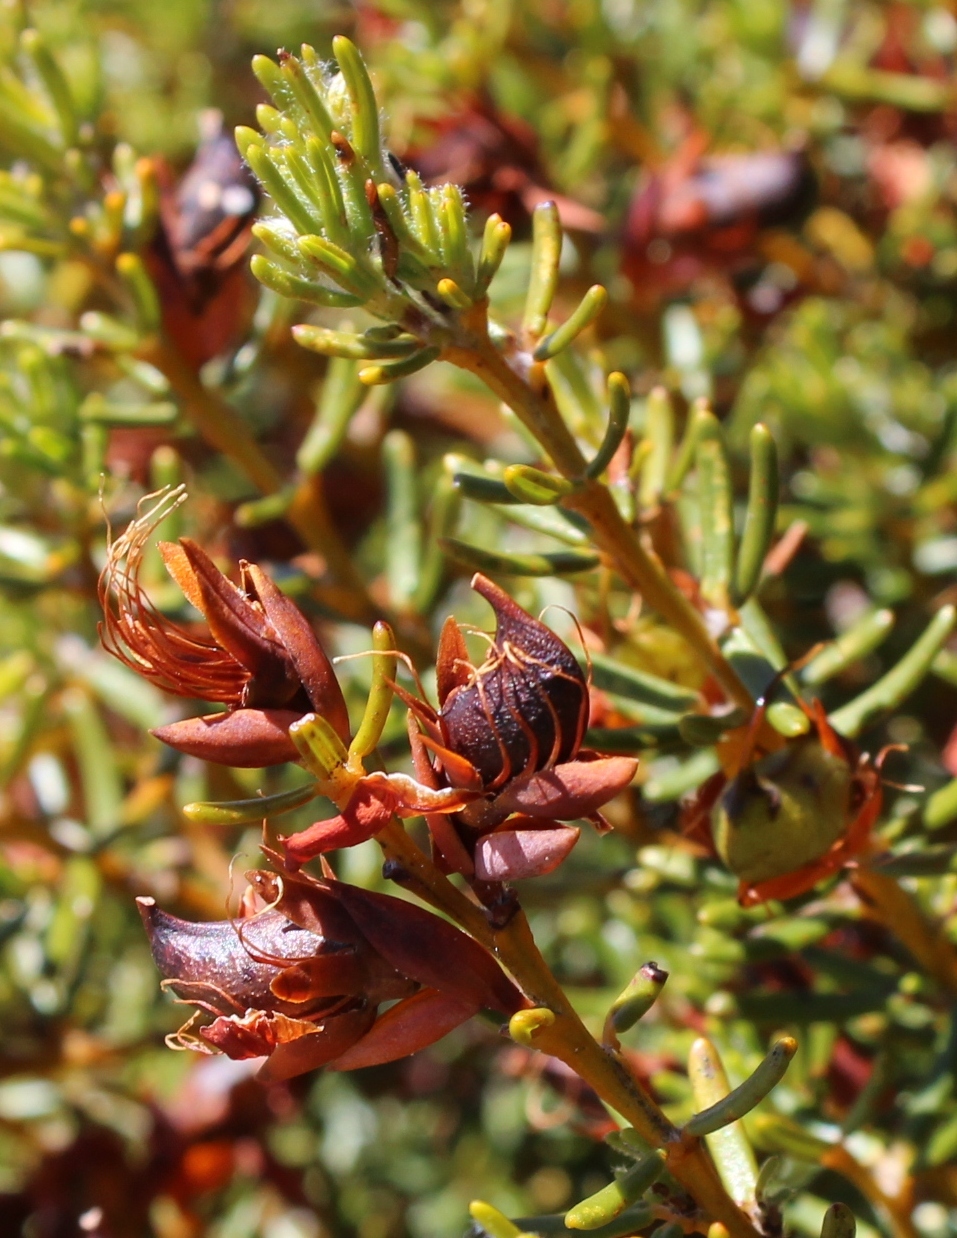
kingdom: Plantae
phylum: Tracheophyta
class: Magnoliopsida
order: Fabales
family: Fabaceae
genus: Cyclopia
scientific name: Cyclopia glabra
